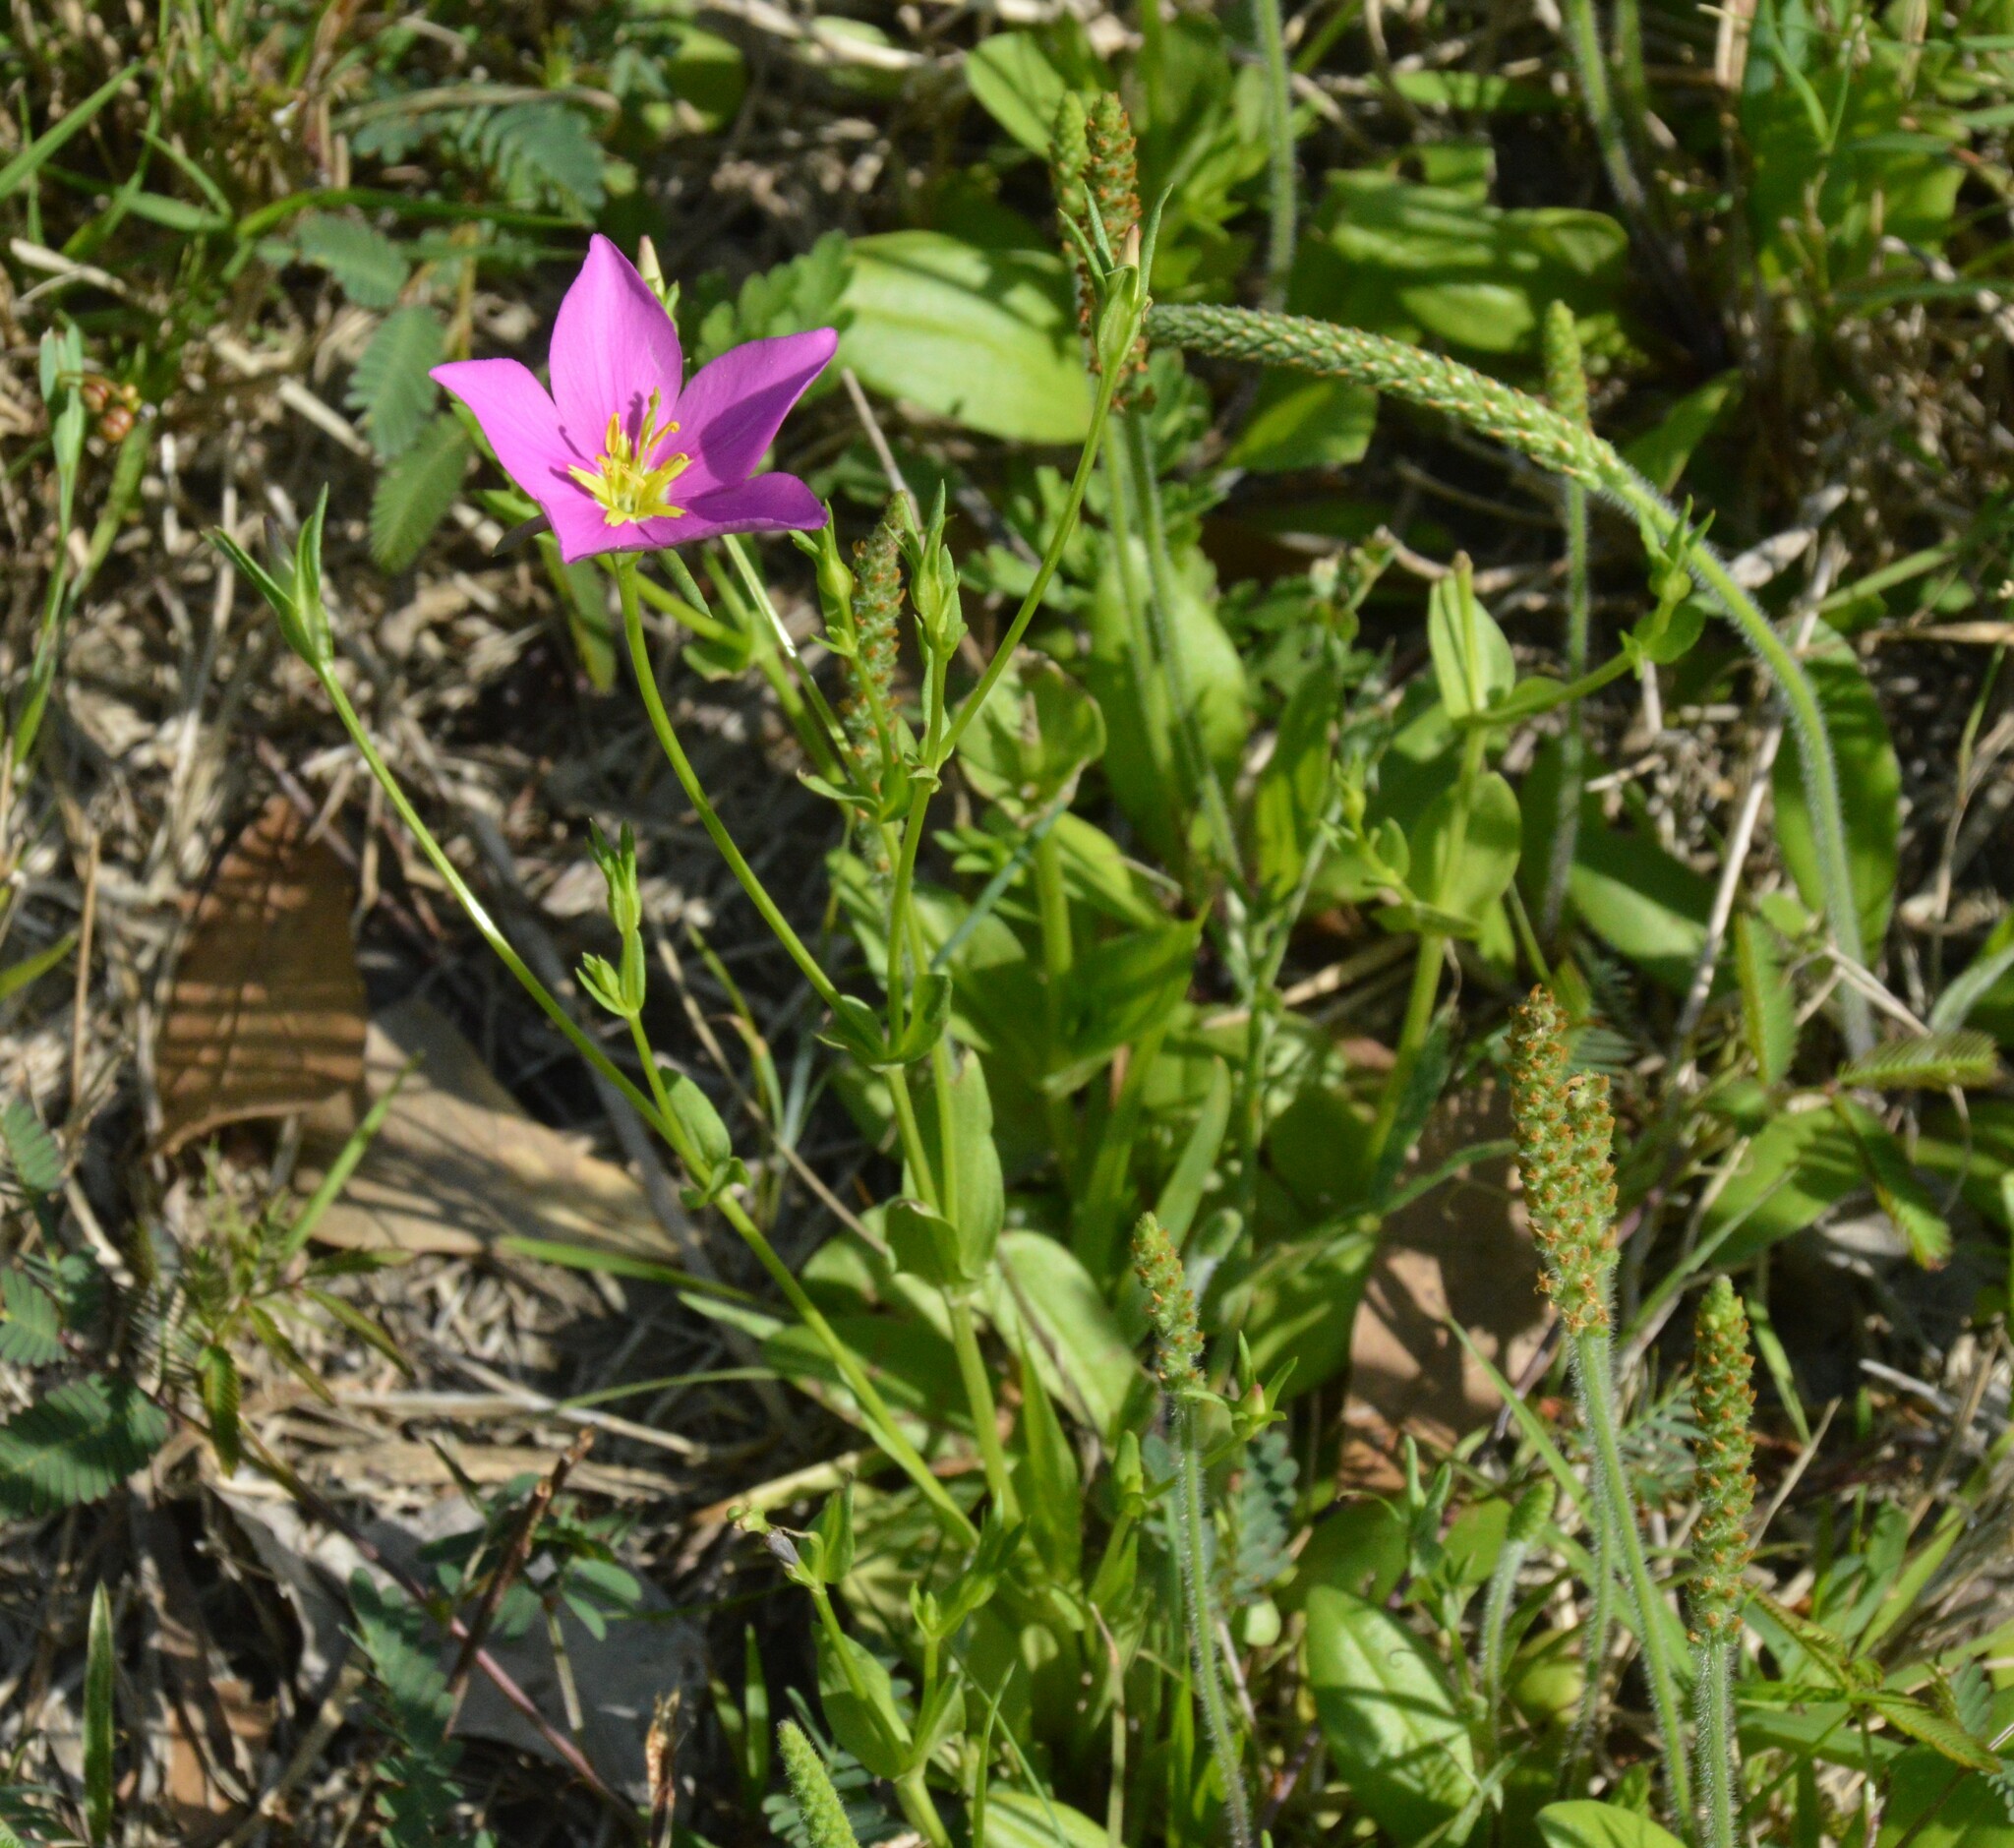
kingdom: Plantae
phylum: Tracheophyta
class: Magnoliopsida
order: Gentianales
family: Gentianaceae
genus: Sabatia
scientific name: Sabatia campestris
